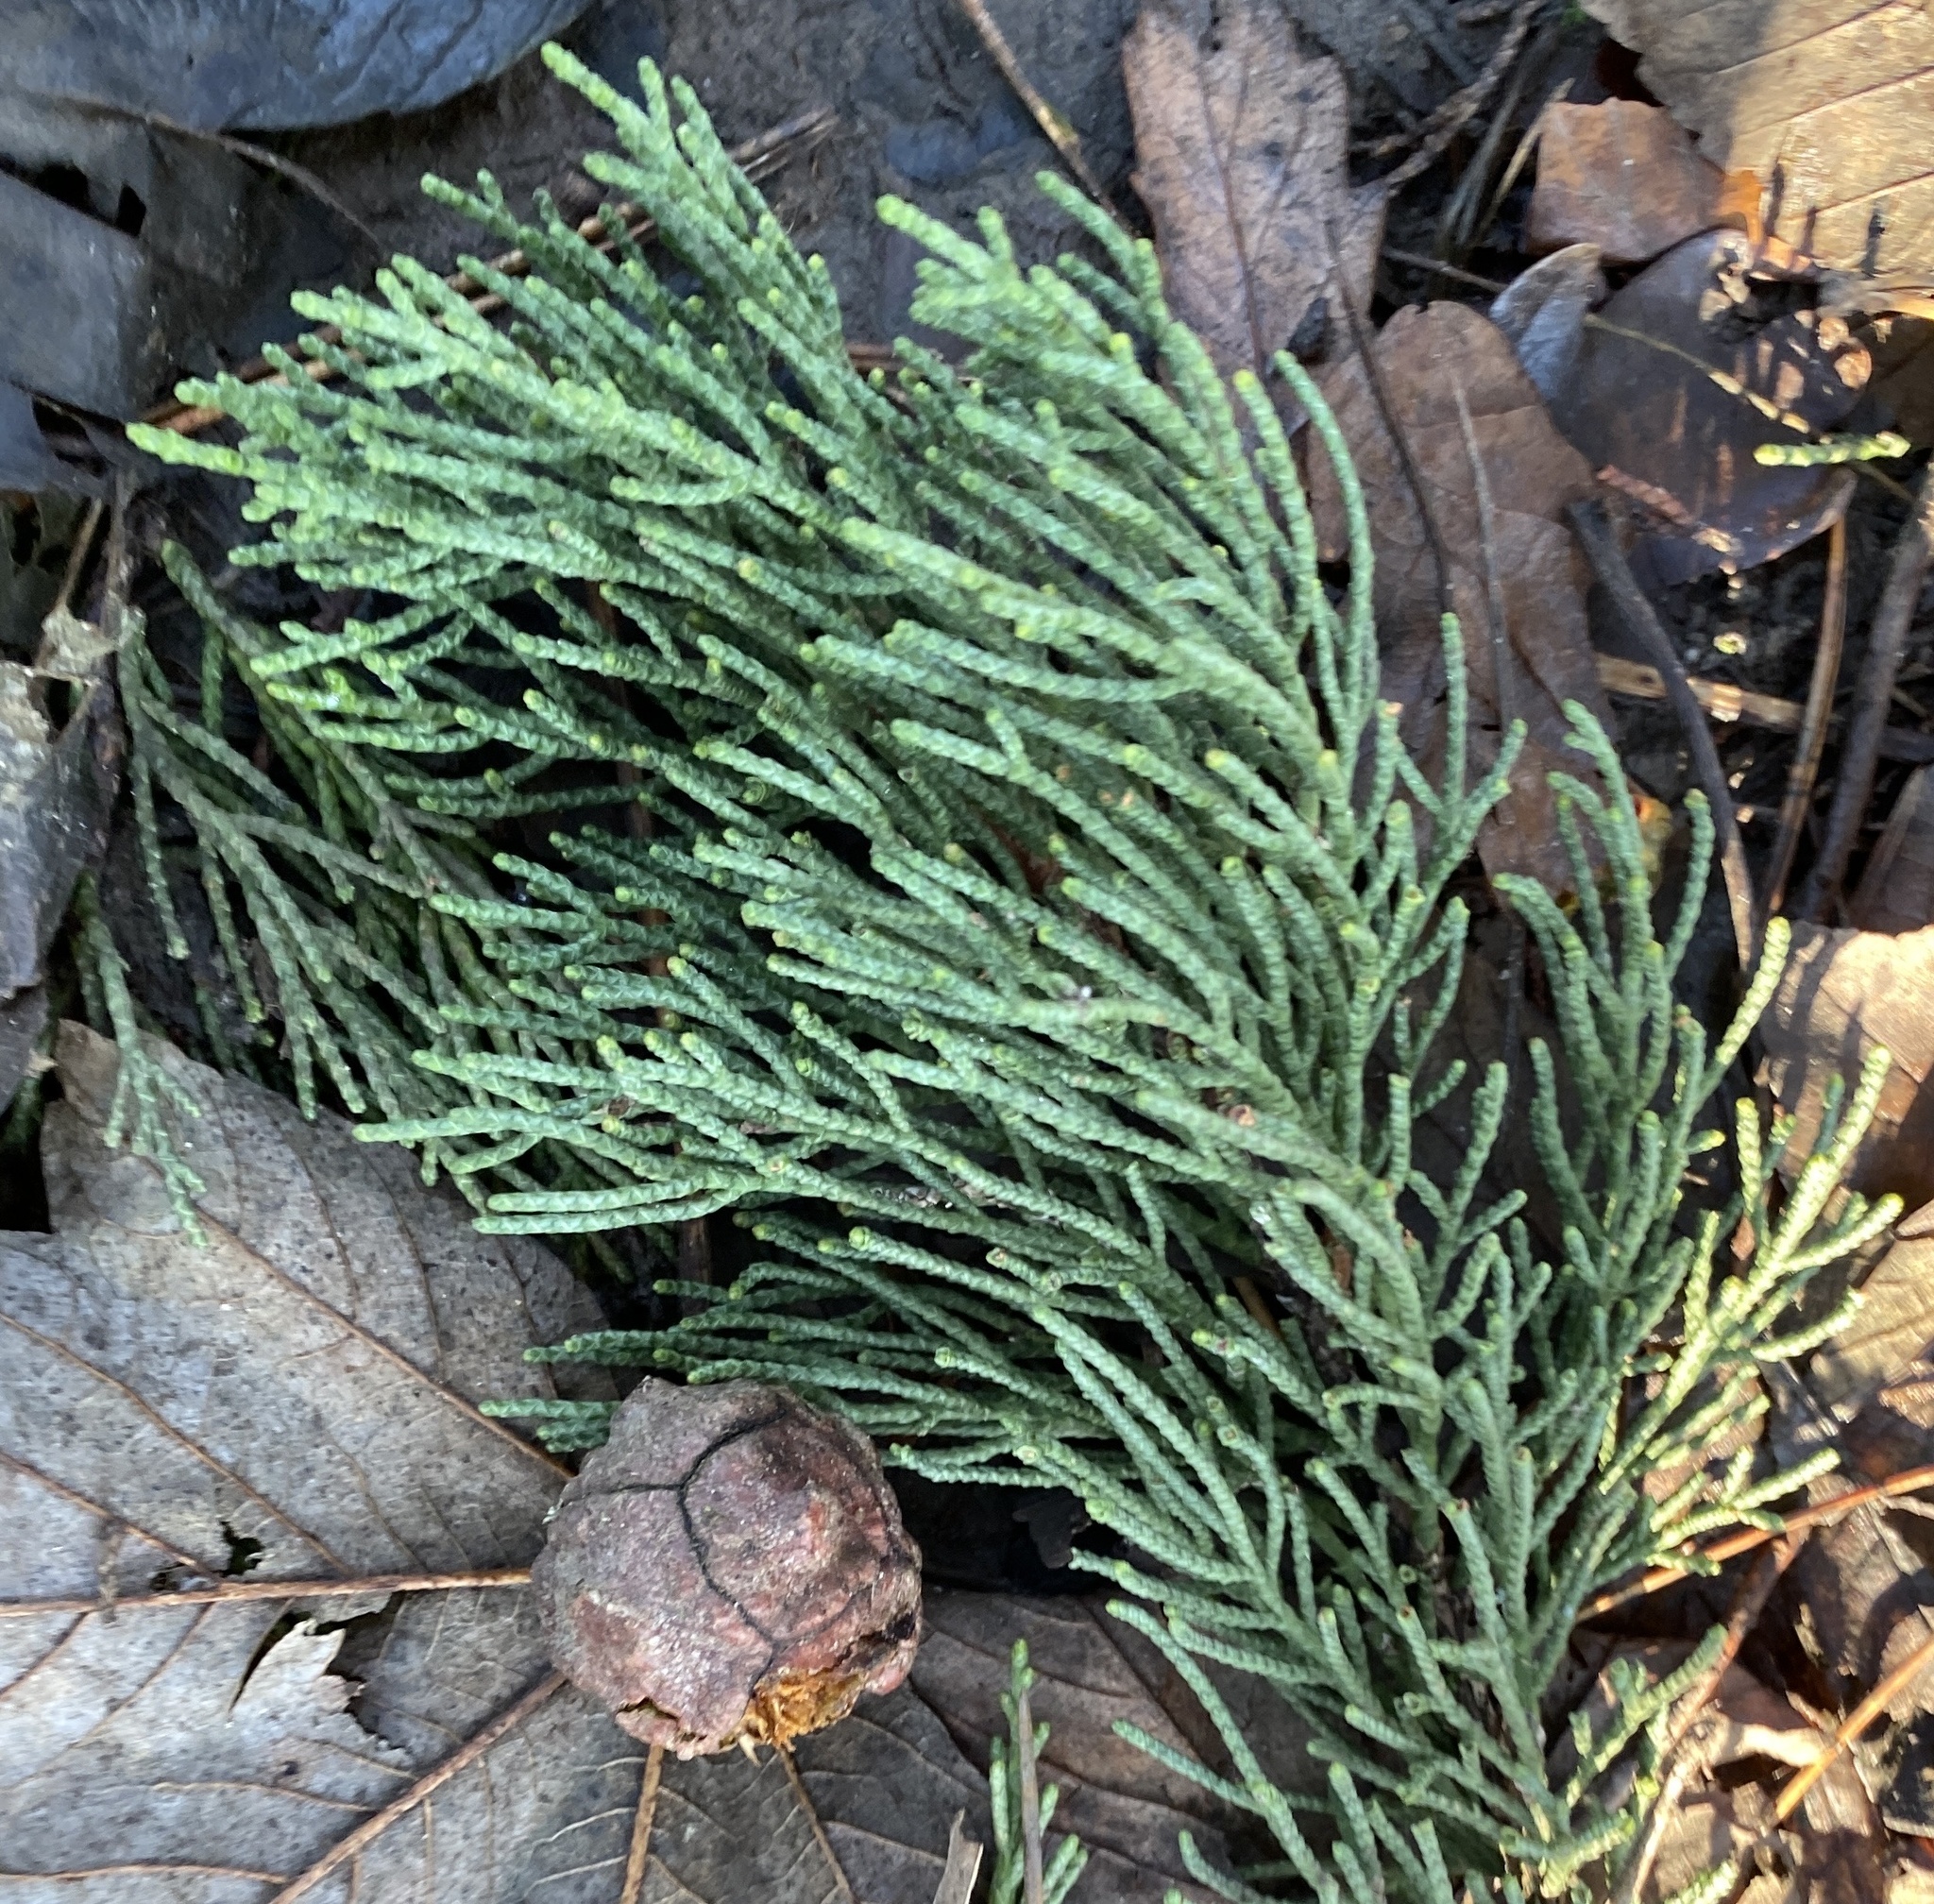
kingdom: Plantae
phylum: Tracheophyta
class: Pinopsida
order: Pinales
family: Cupressaceae
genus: Cupressus
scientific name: Cupressus macrocarpa
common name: Monterey cypress
